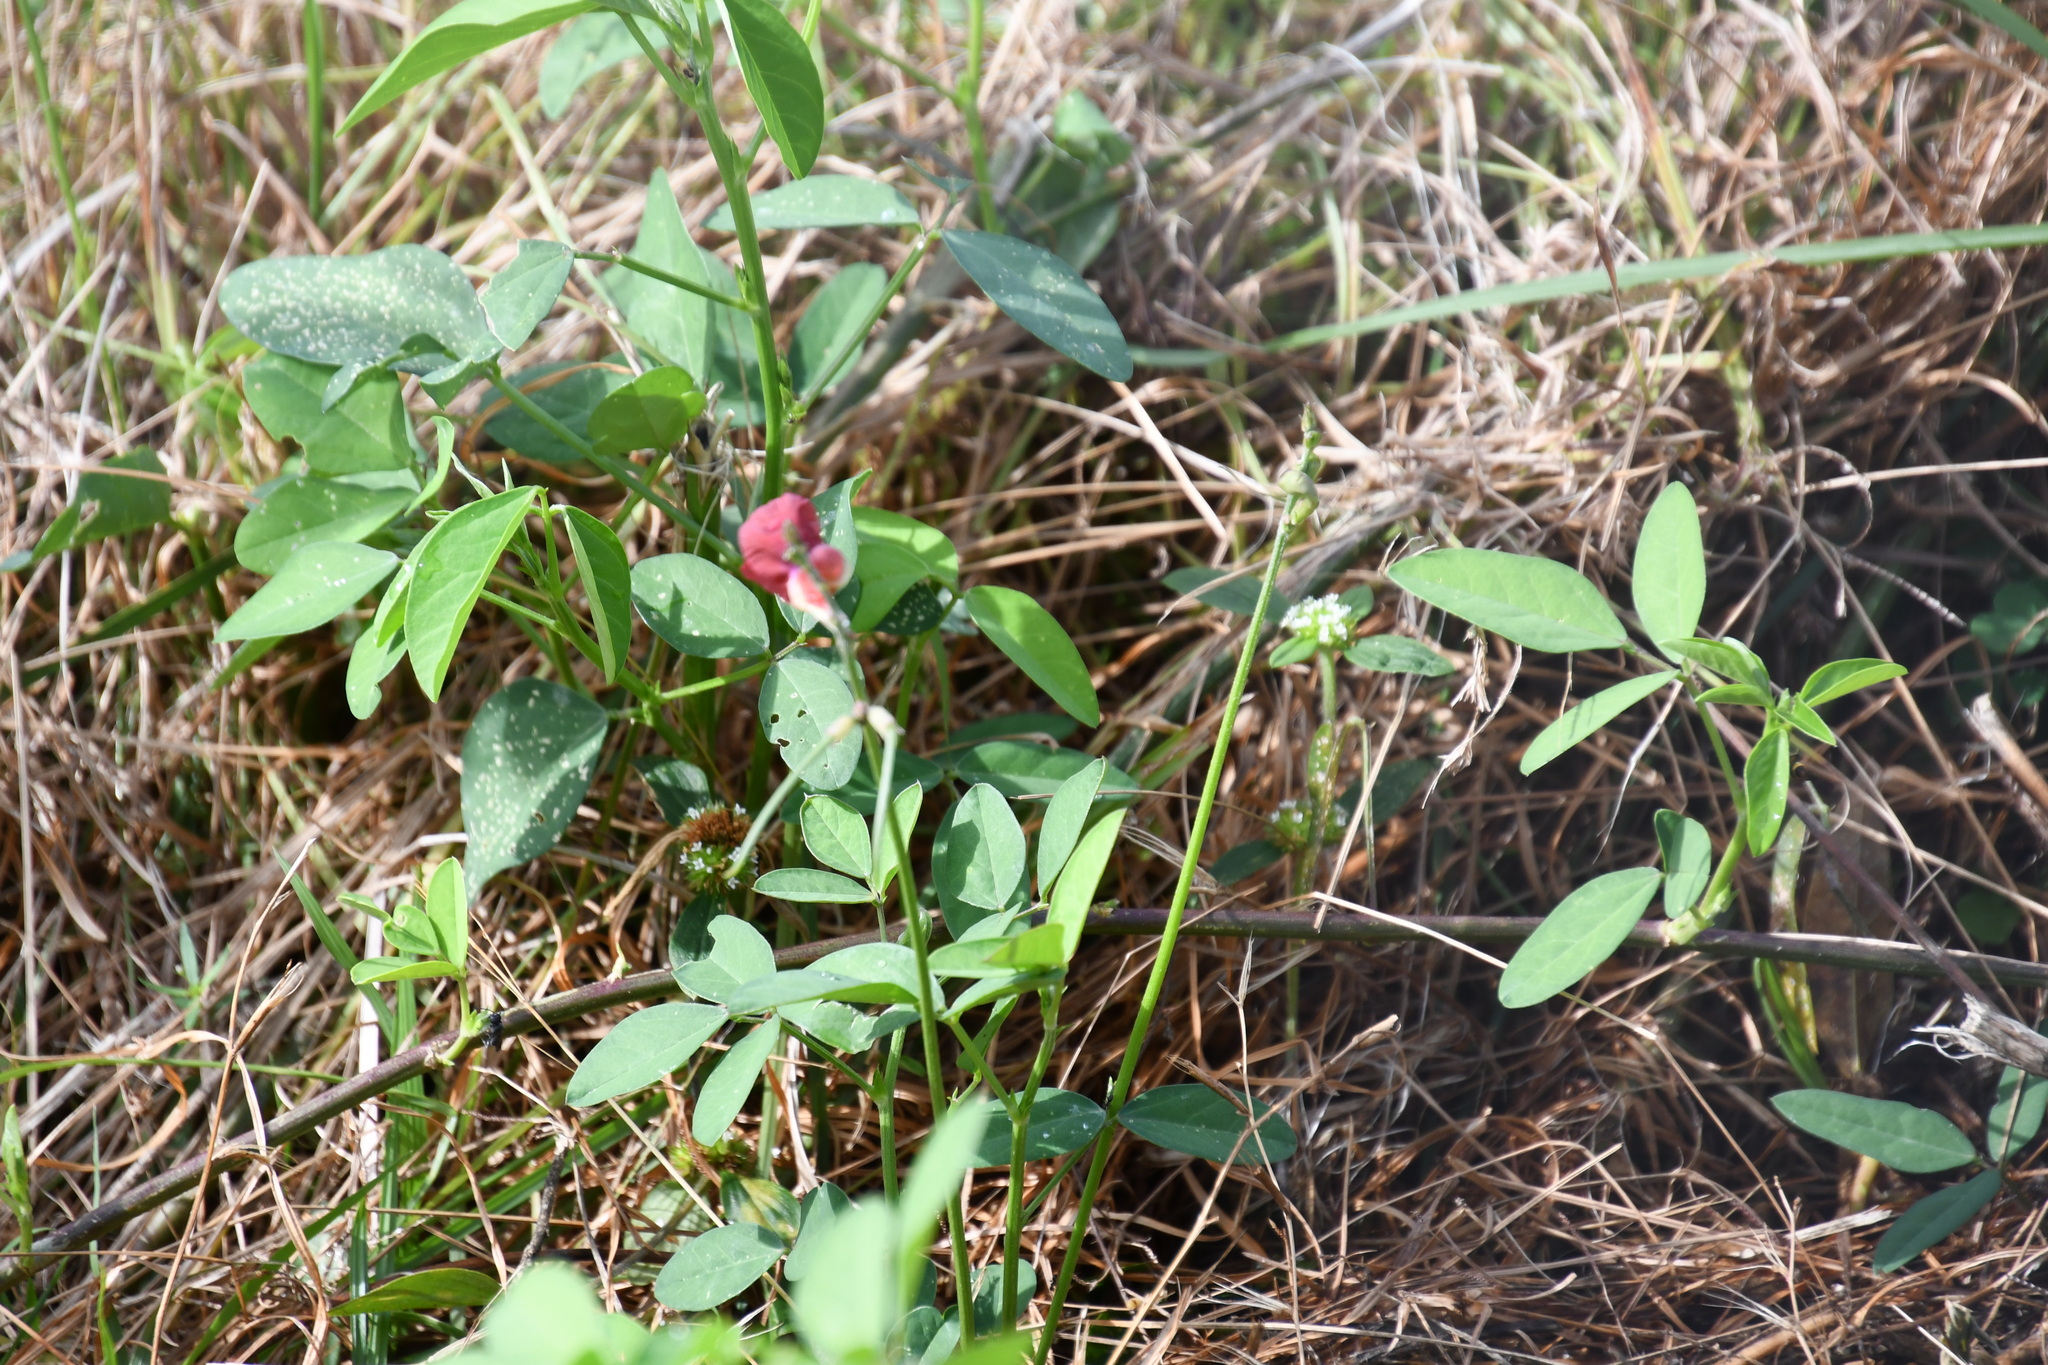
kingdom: Plantae
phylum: Tracheophyta
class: Magnoliopsida
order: Fabales
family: Fabaceae
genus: Macroptilium
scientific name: Macroptilium lathyroides
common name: Wild bushbean
